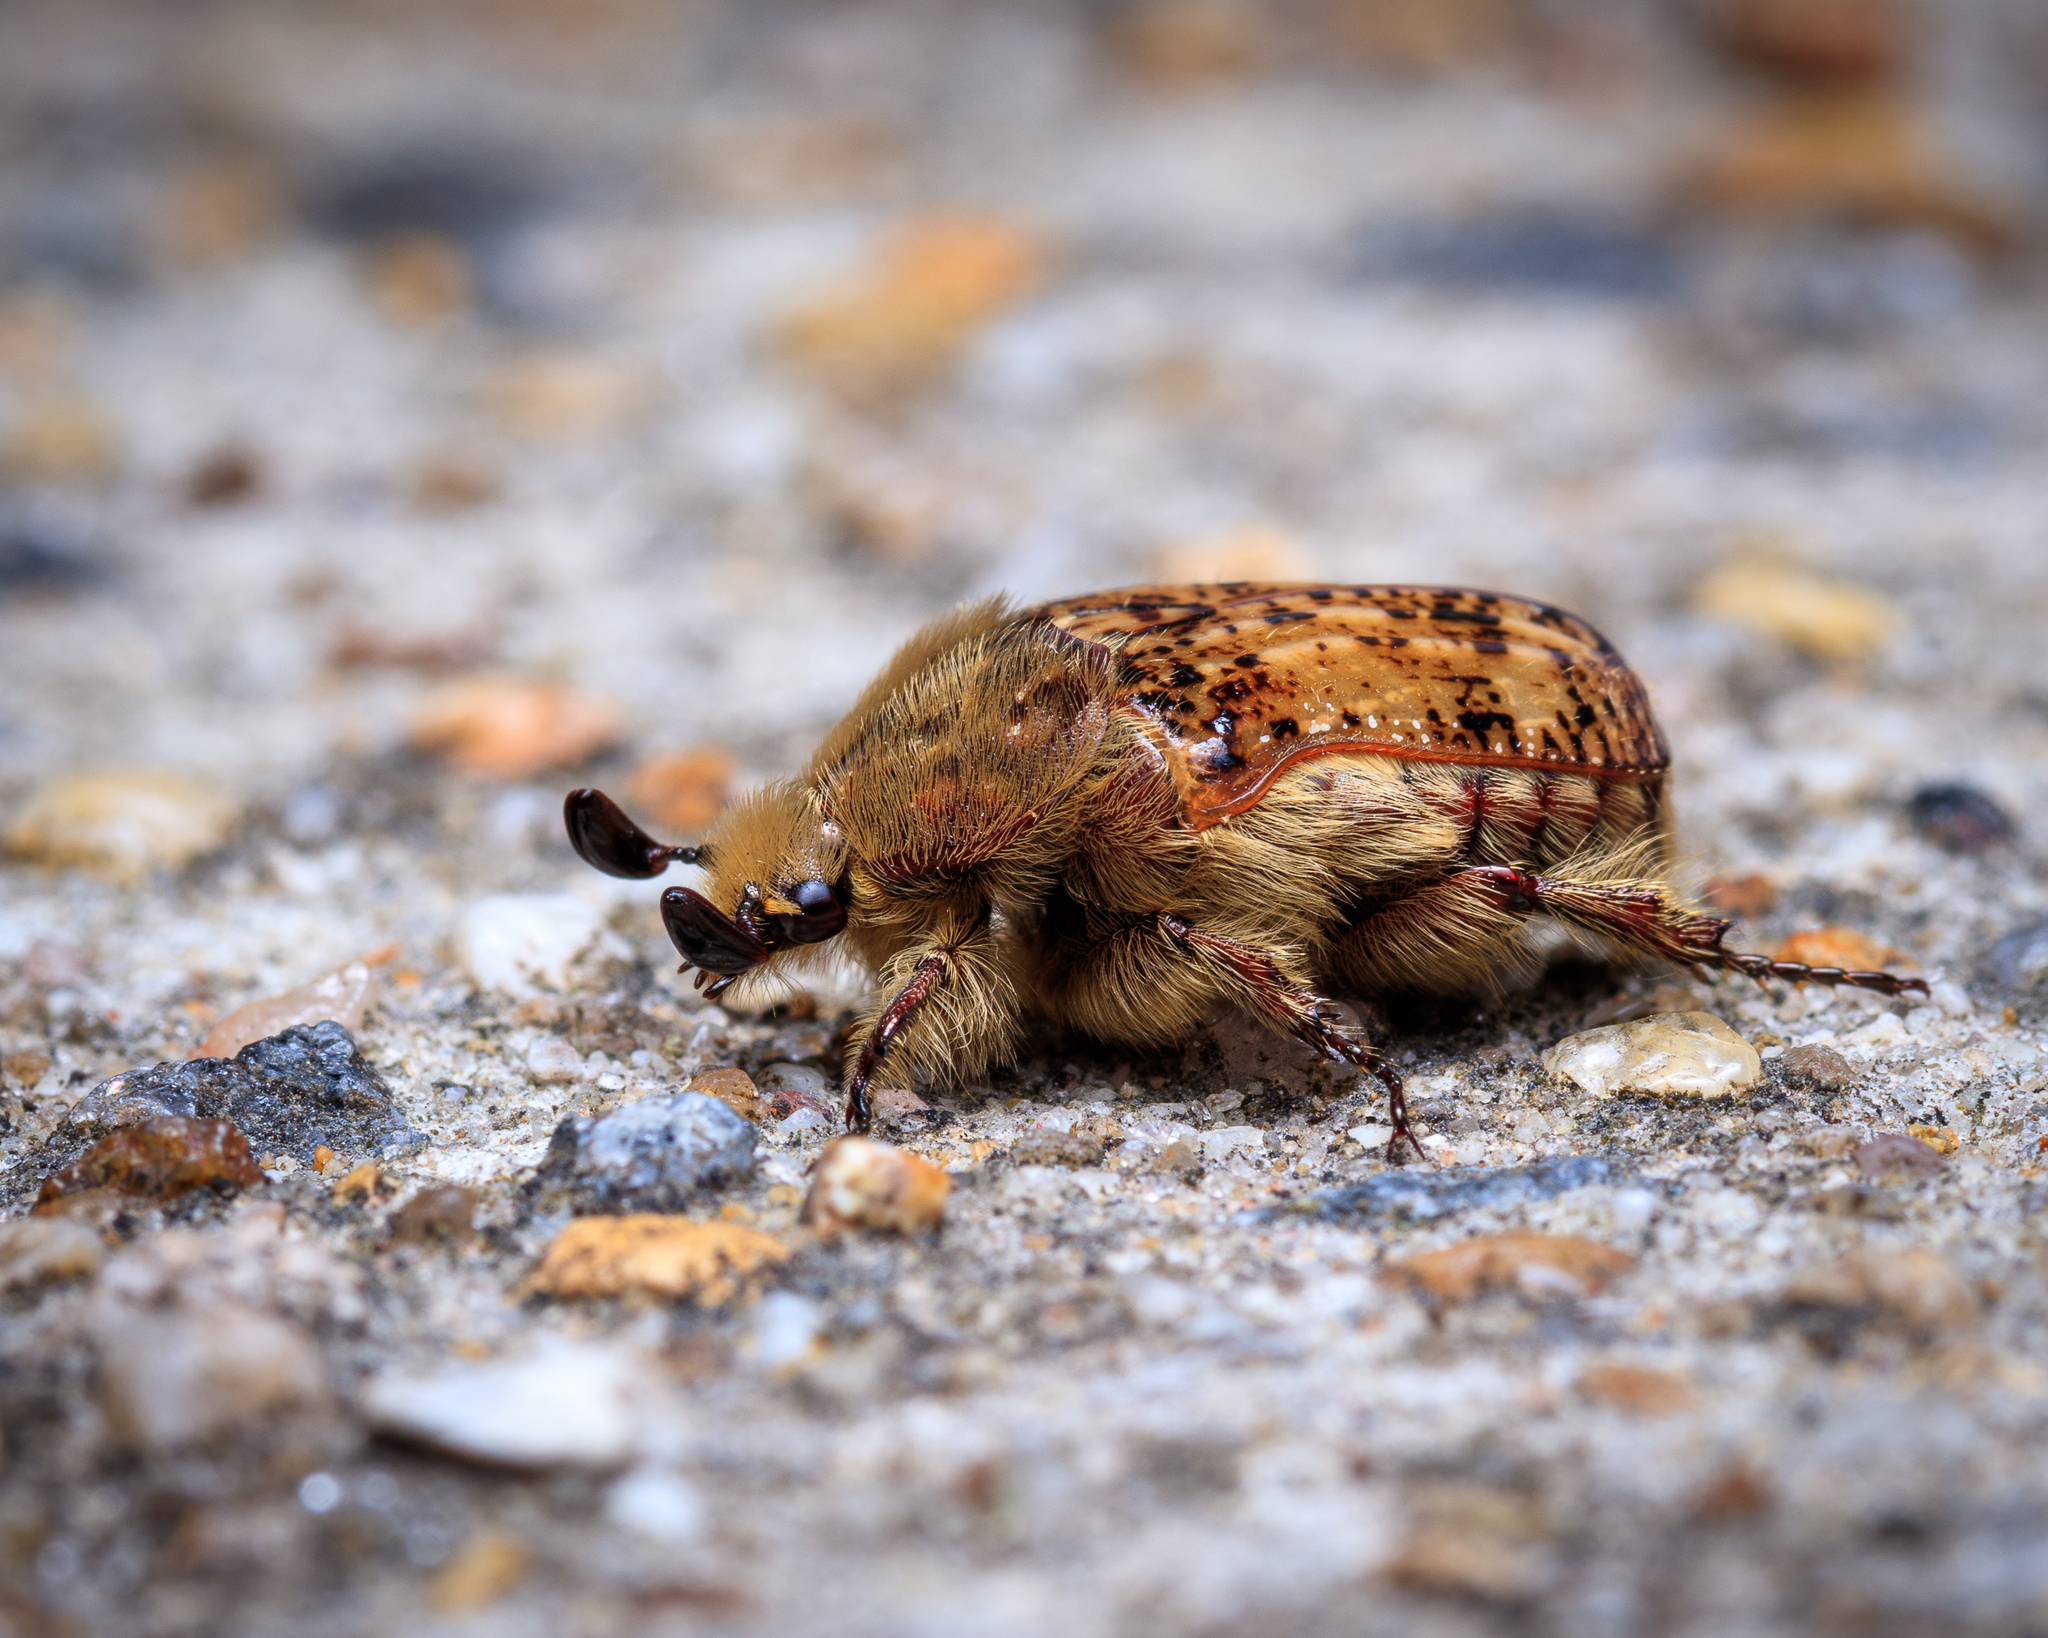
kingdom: Animalia
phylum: Arthropoda
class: Insecta
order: Coleoptera
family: Scarabaeidae
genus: Euphoria
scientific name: Euphoria inda
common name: Bumble flower beetle
